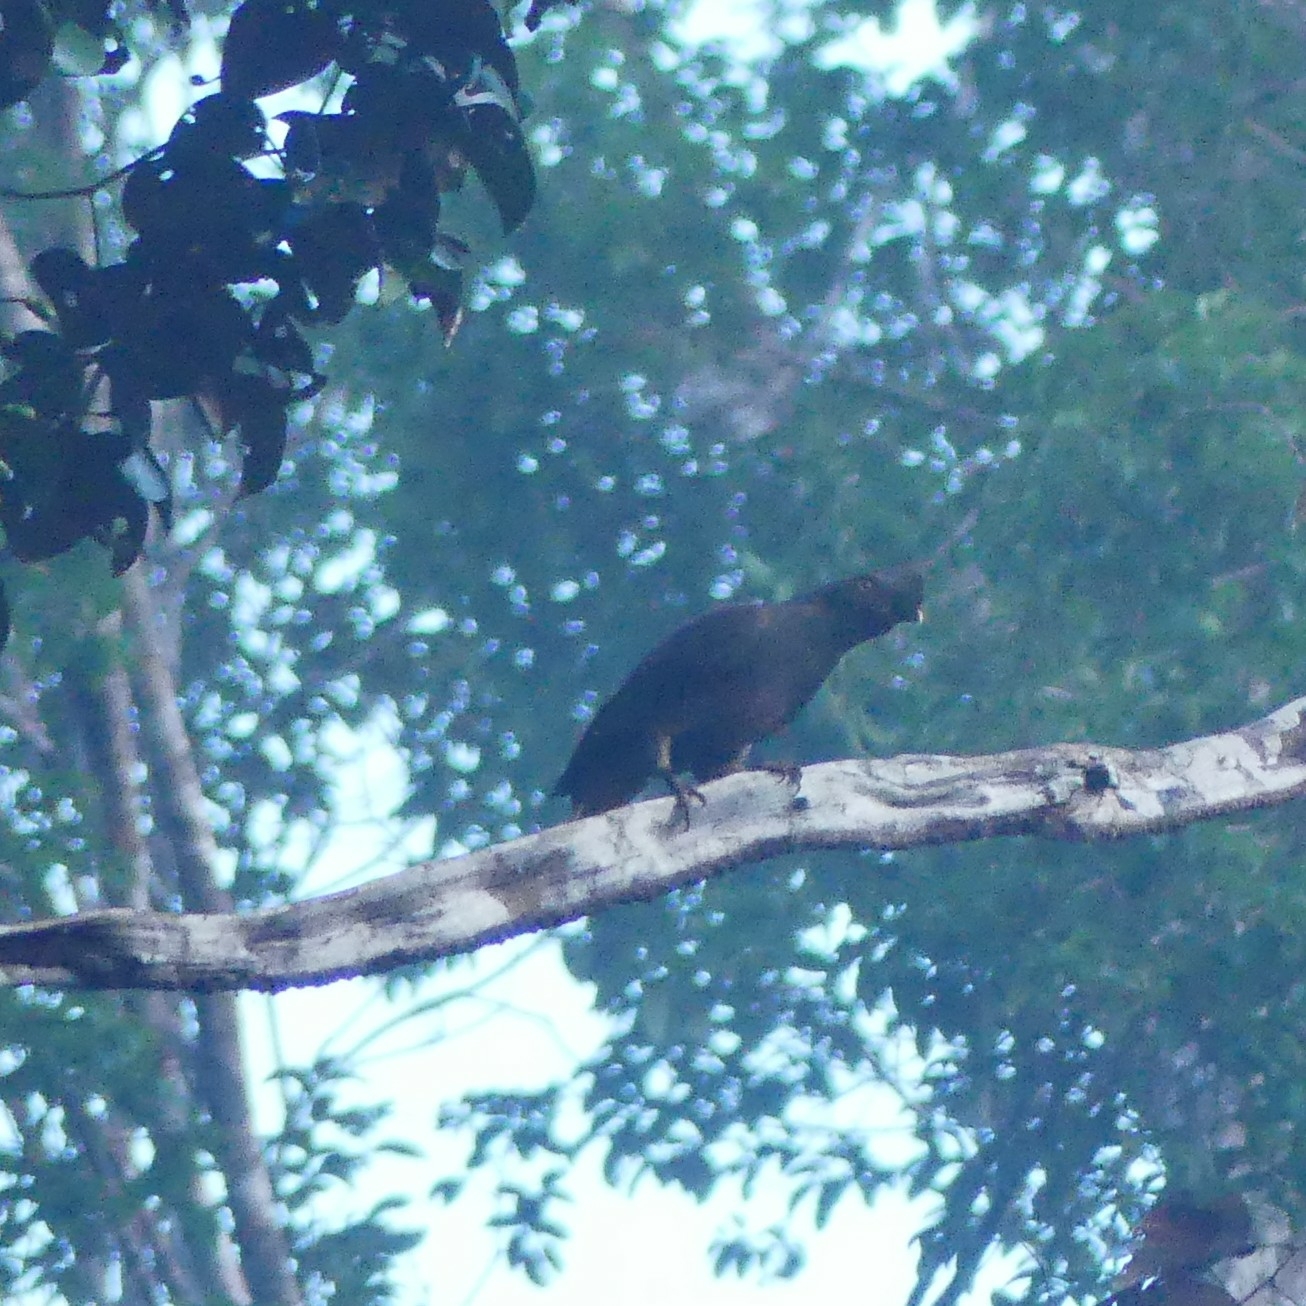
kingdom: Animalia
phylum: Chordata
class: Aves
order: Passeriformes
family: Cotingidae
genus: Rupicola
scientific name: Rupicola rupicola
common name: Guianan cock-of-the-rock
